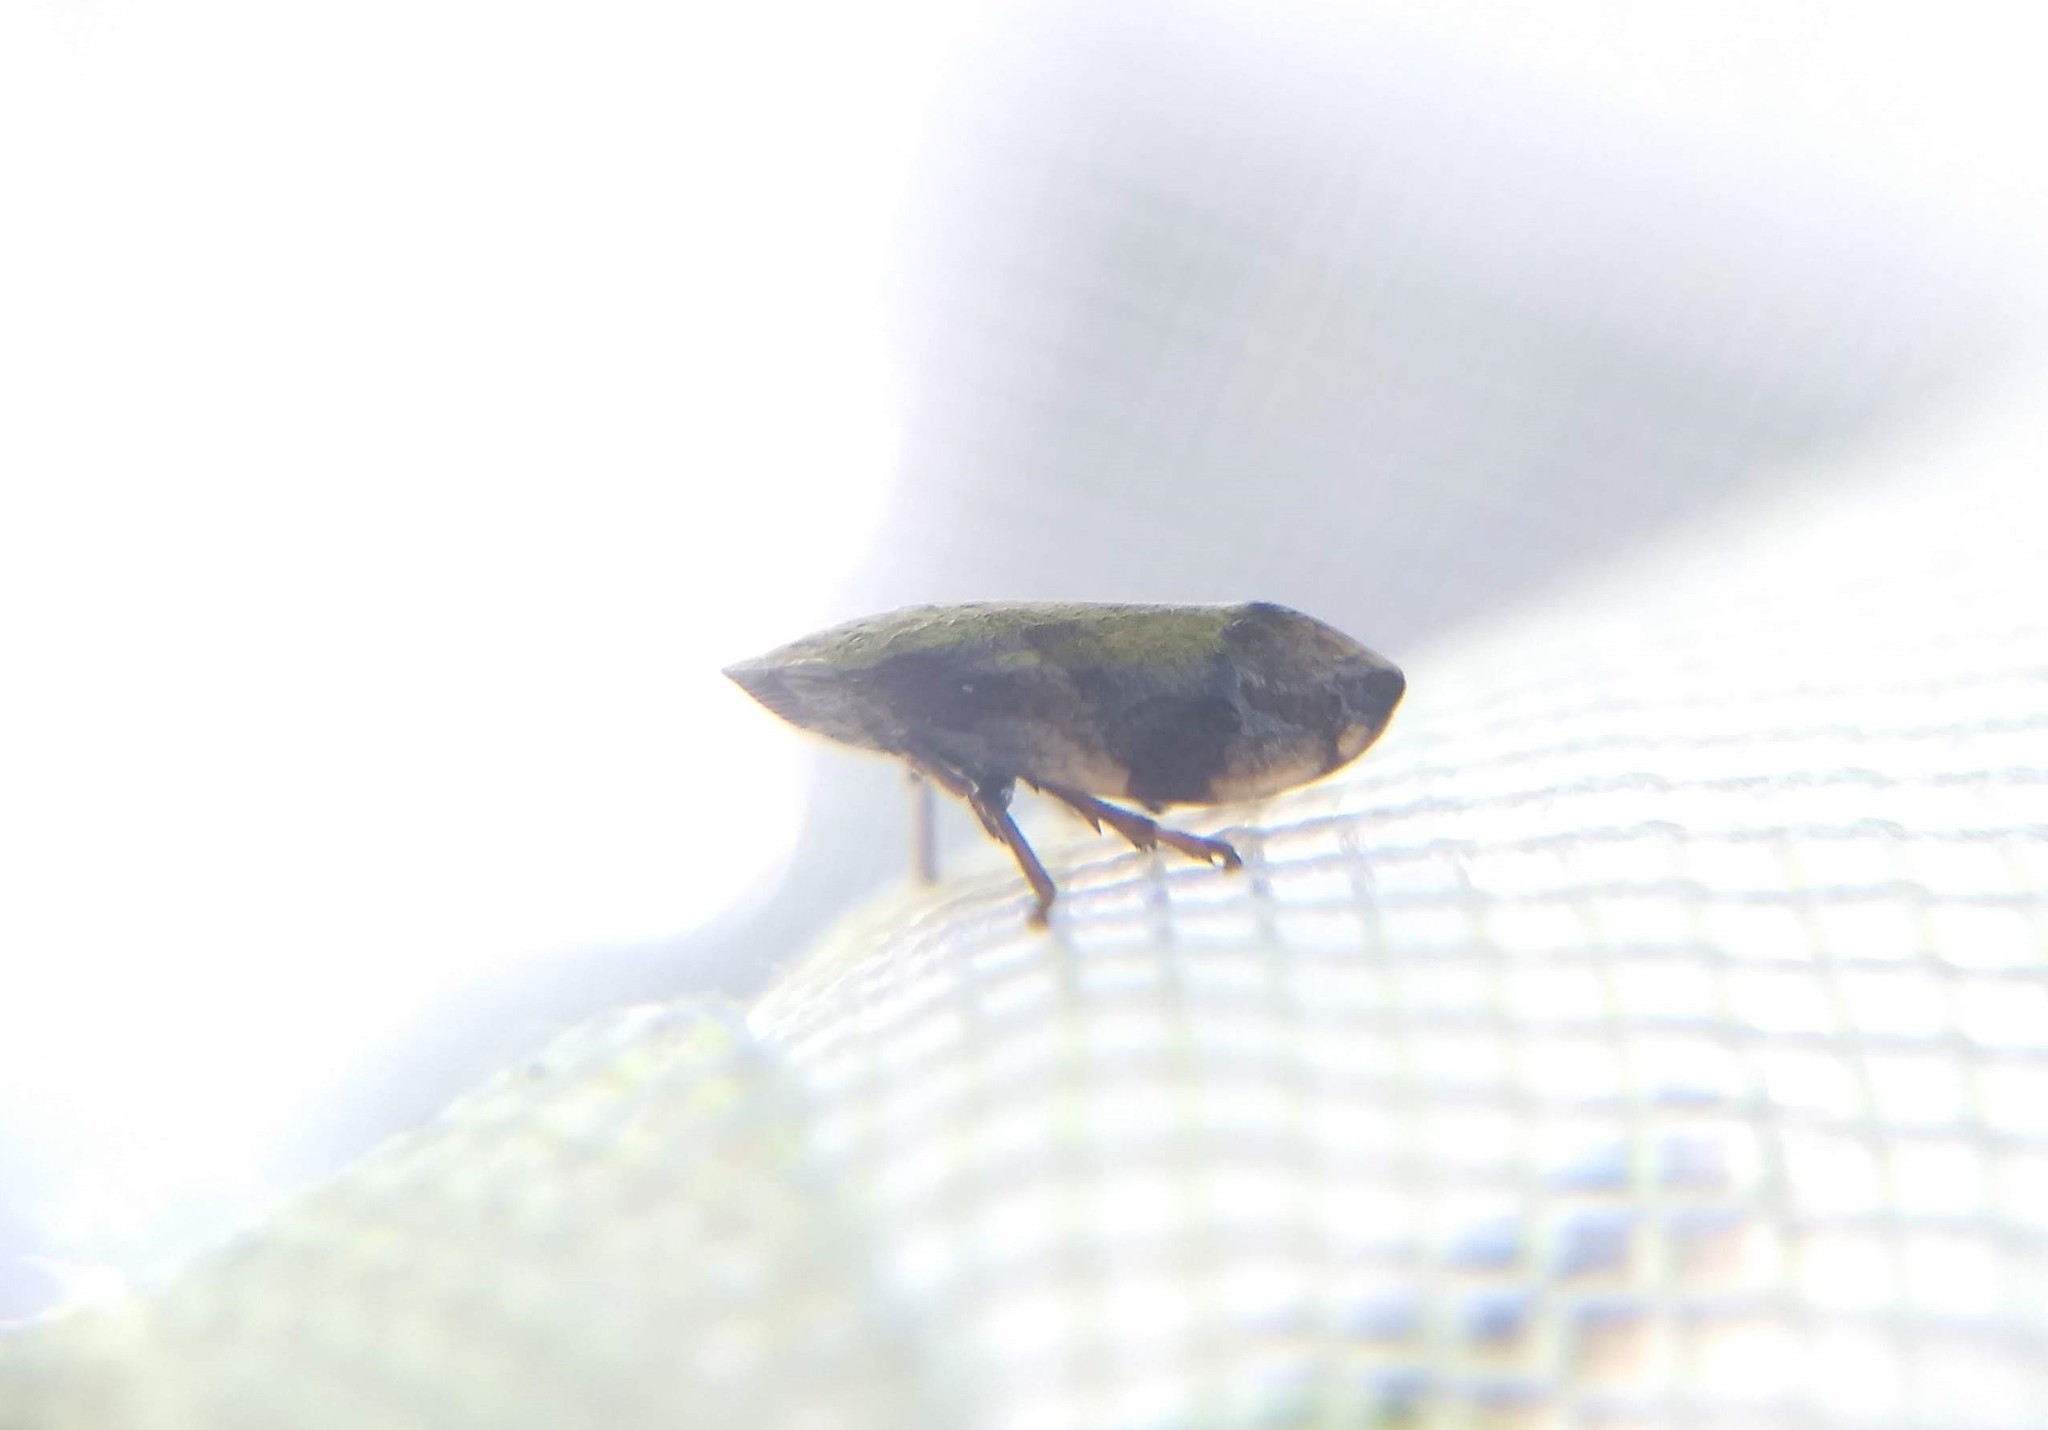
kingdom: Animalia
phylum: Arthropoda
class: Insecta
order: Hemiptera
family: Aphrophoridae
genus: Lepyronia
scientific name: Lepyronia quadrangularis
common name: Diamond-backed spittlebug
